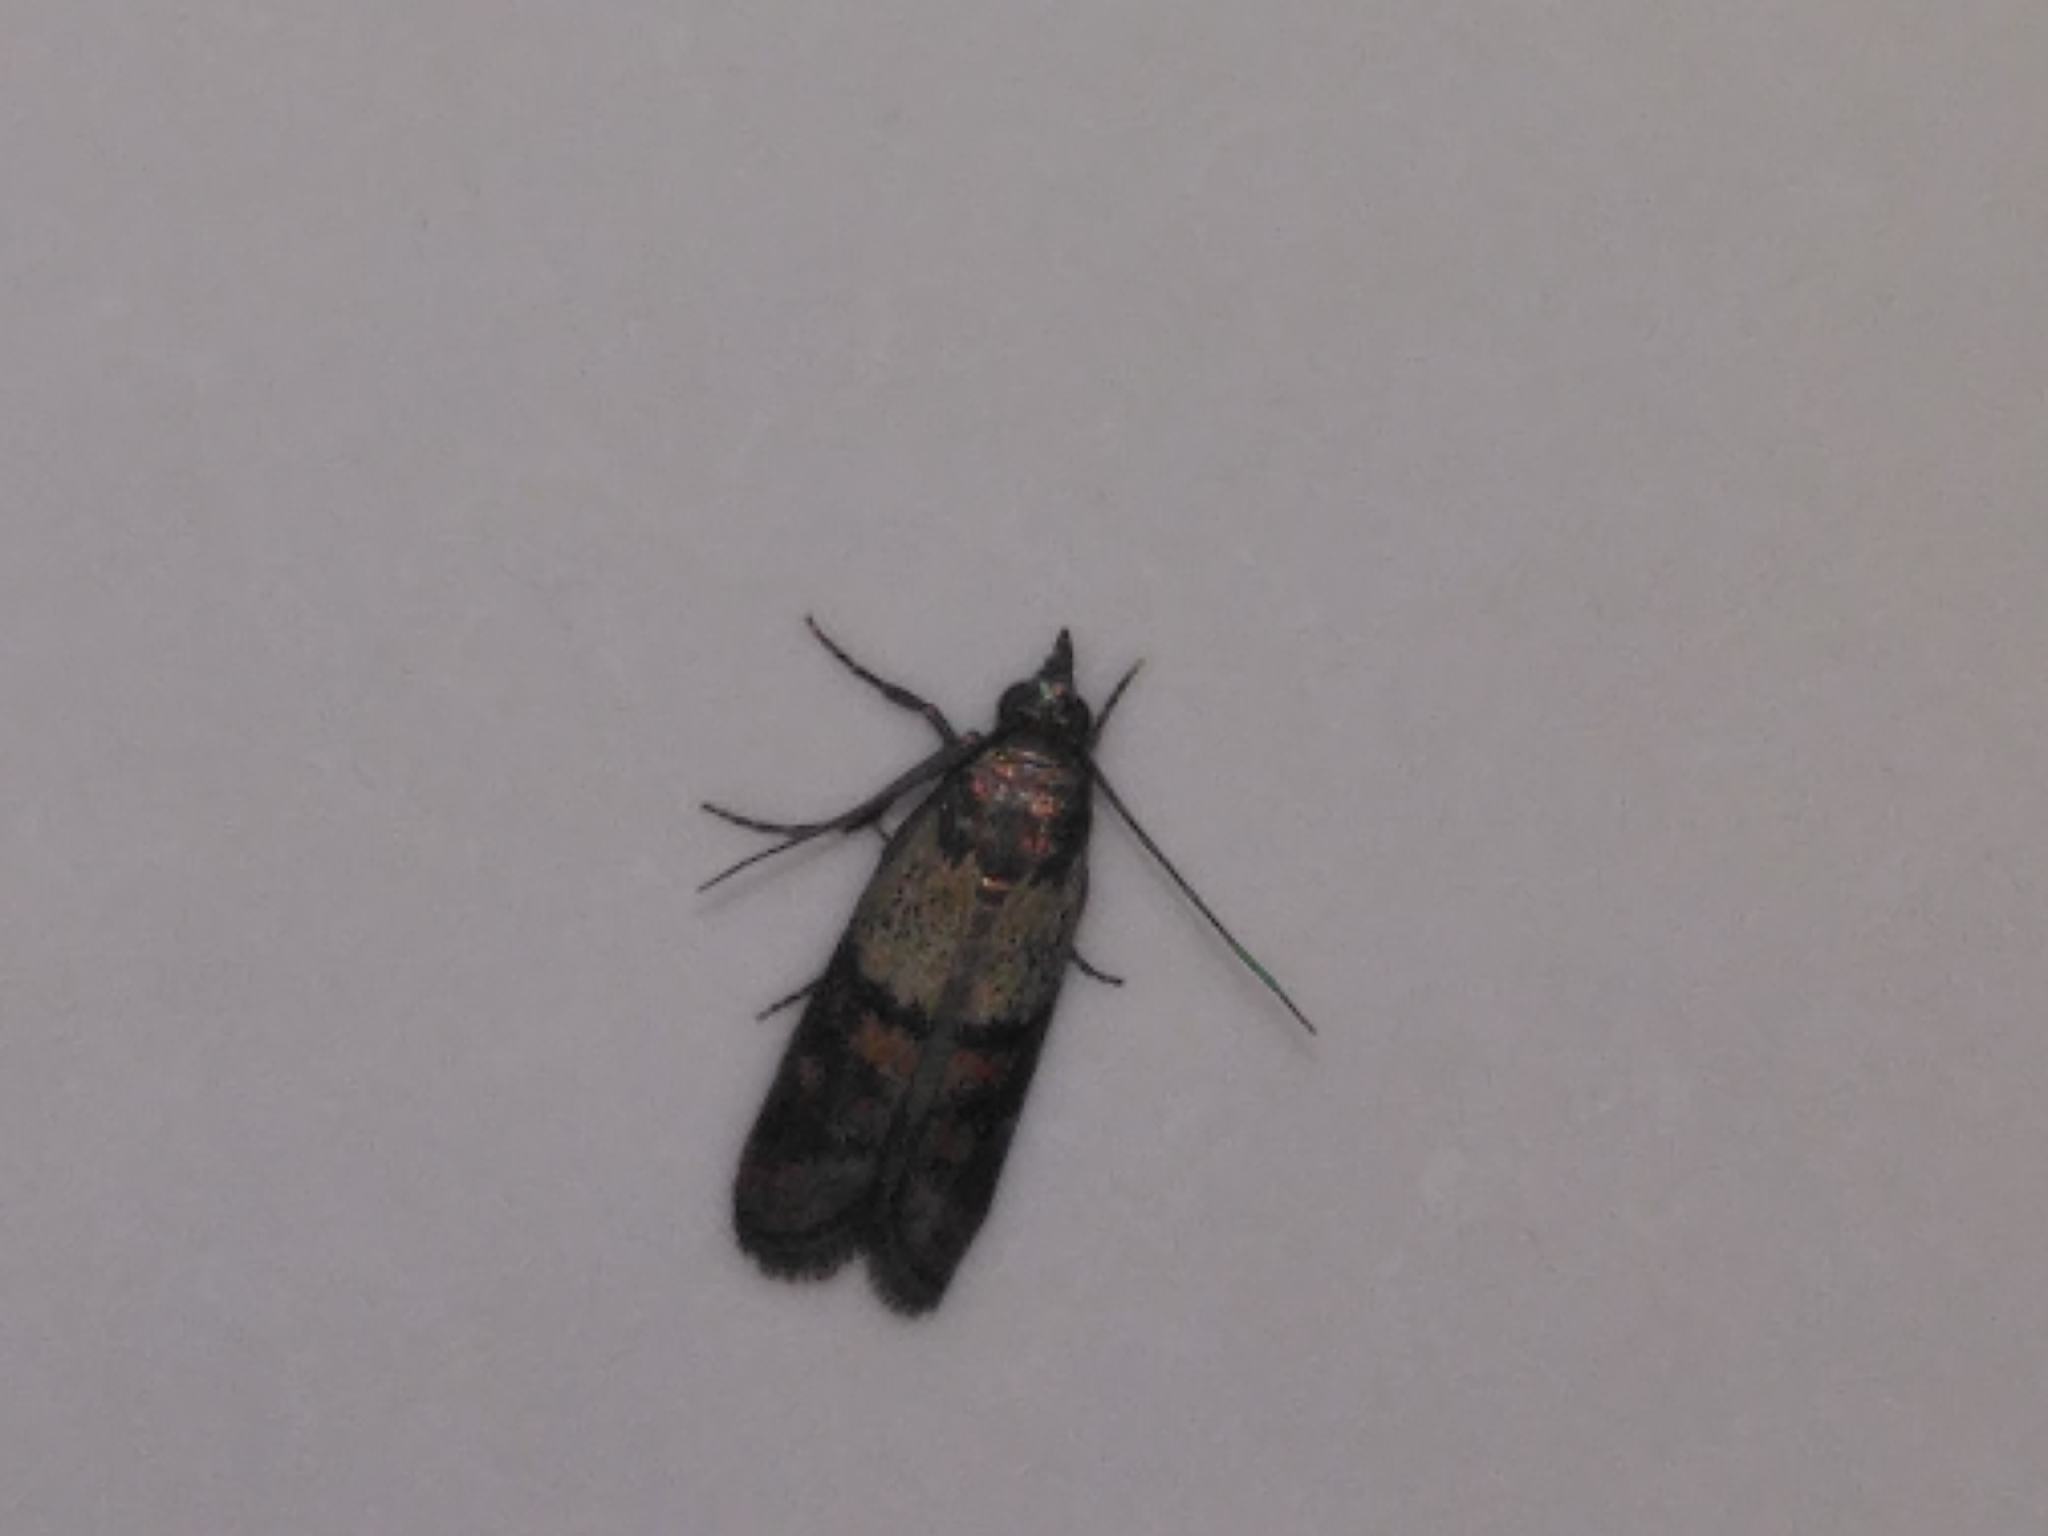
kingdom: Animalia
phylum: Arthropoda
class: Insecta
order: Lepidoptera
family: Pyralidae
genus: Plodia
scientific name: Plodia interpunctella
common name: Indian meal moth
